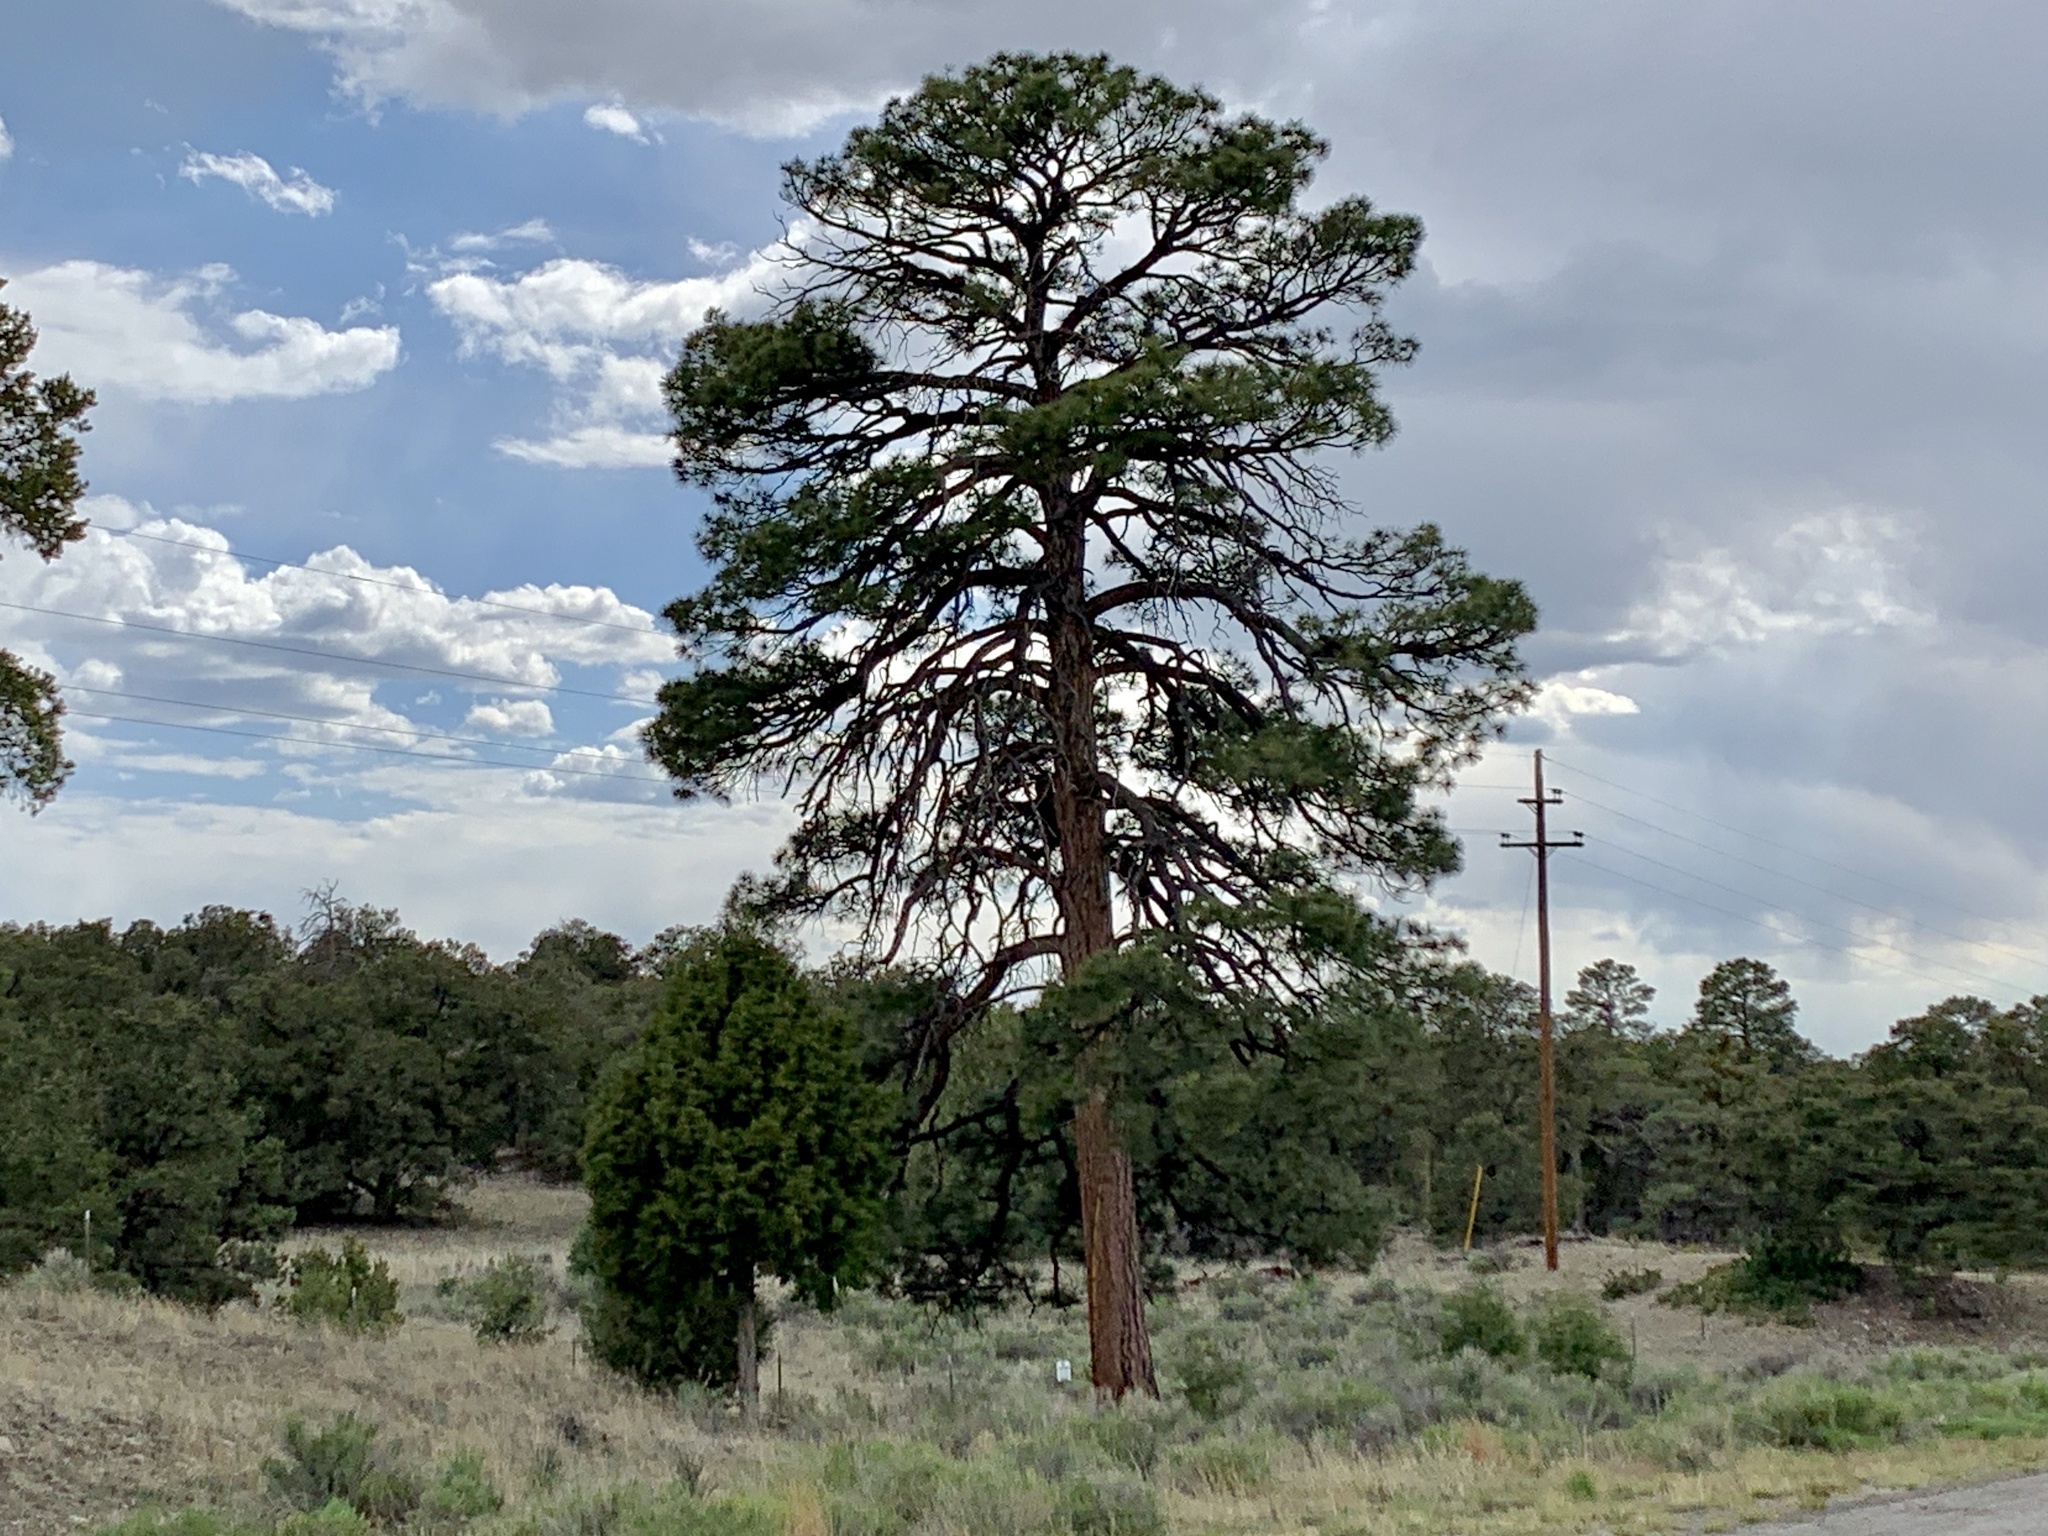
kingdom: Plantae
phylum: Tracheophyta
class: Pinopsida
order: Pinales
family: Pinaceae
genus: Pinus
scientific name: Pinus ponderosa
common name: Western yellow-pine
